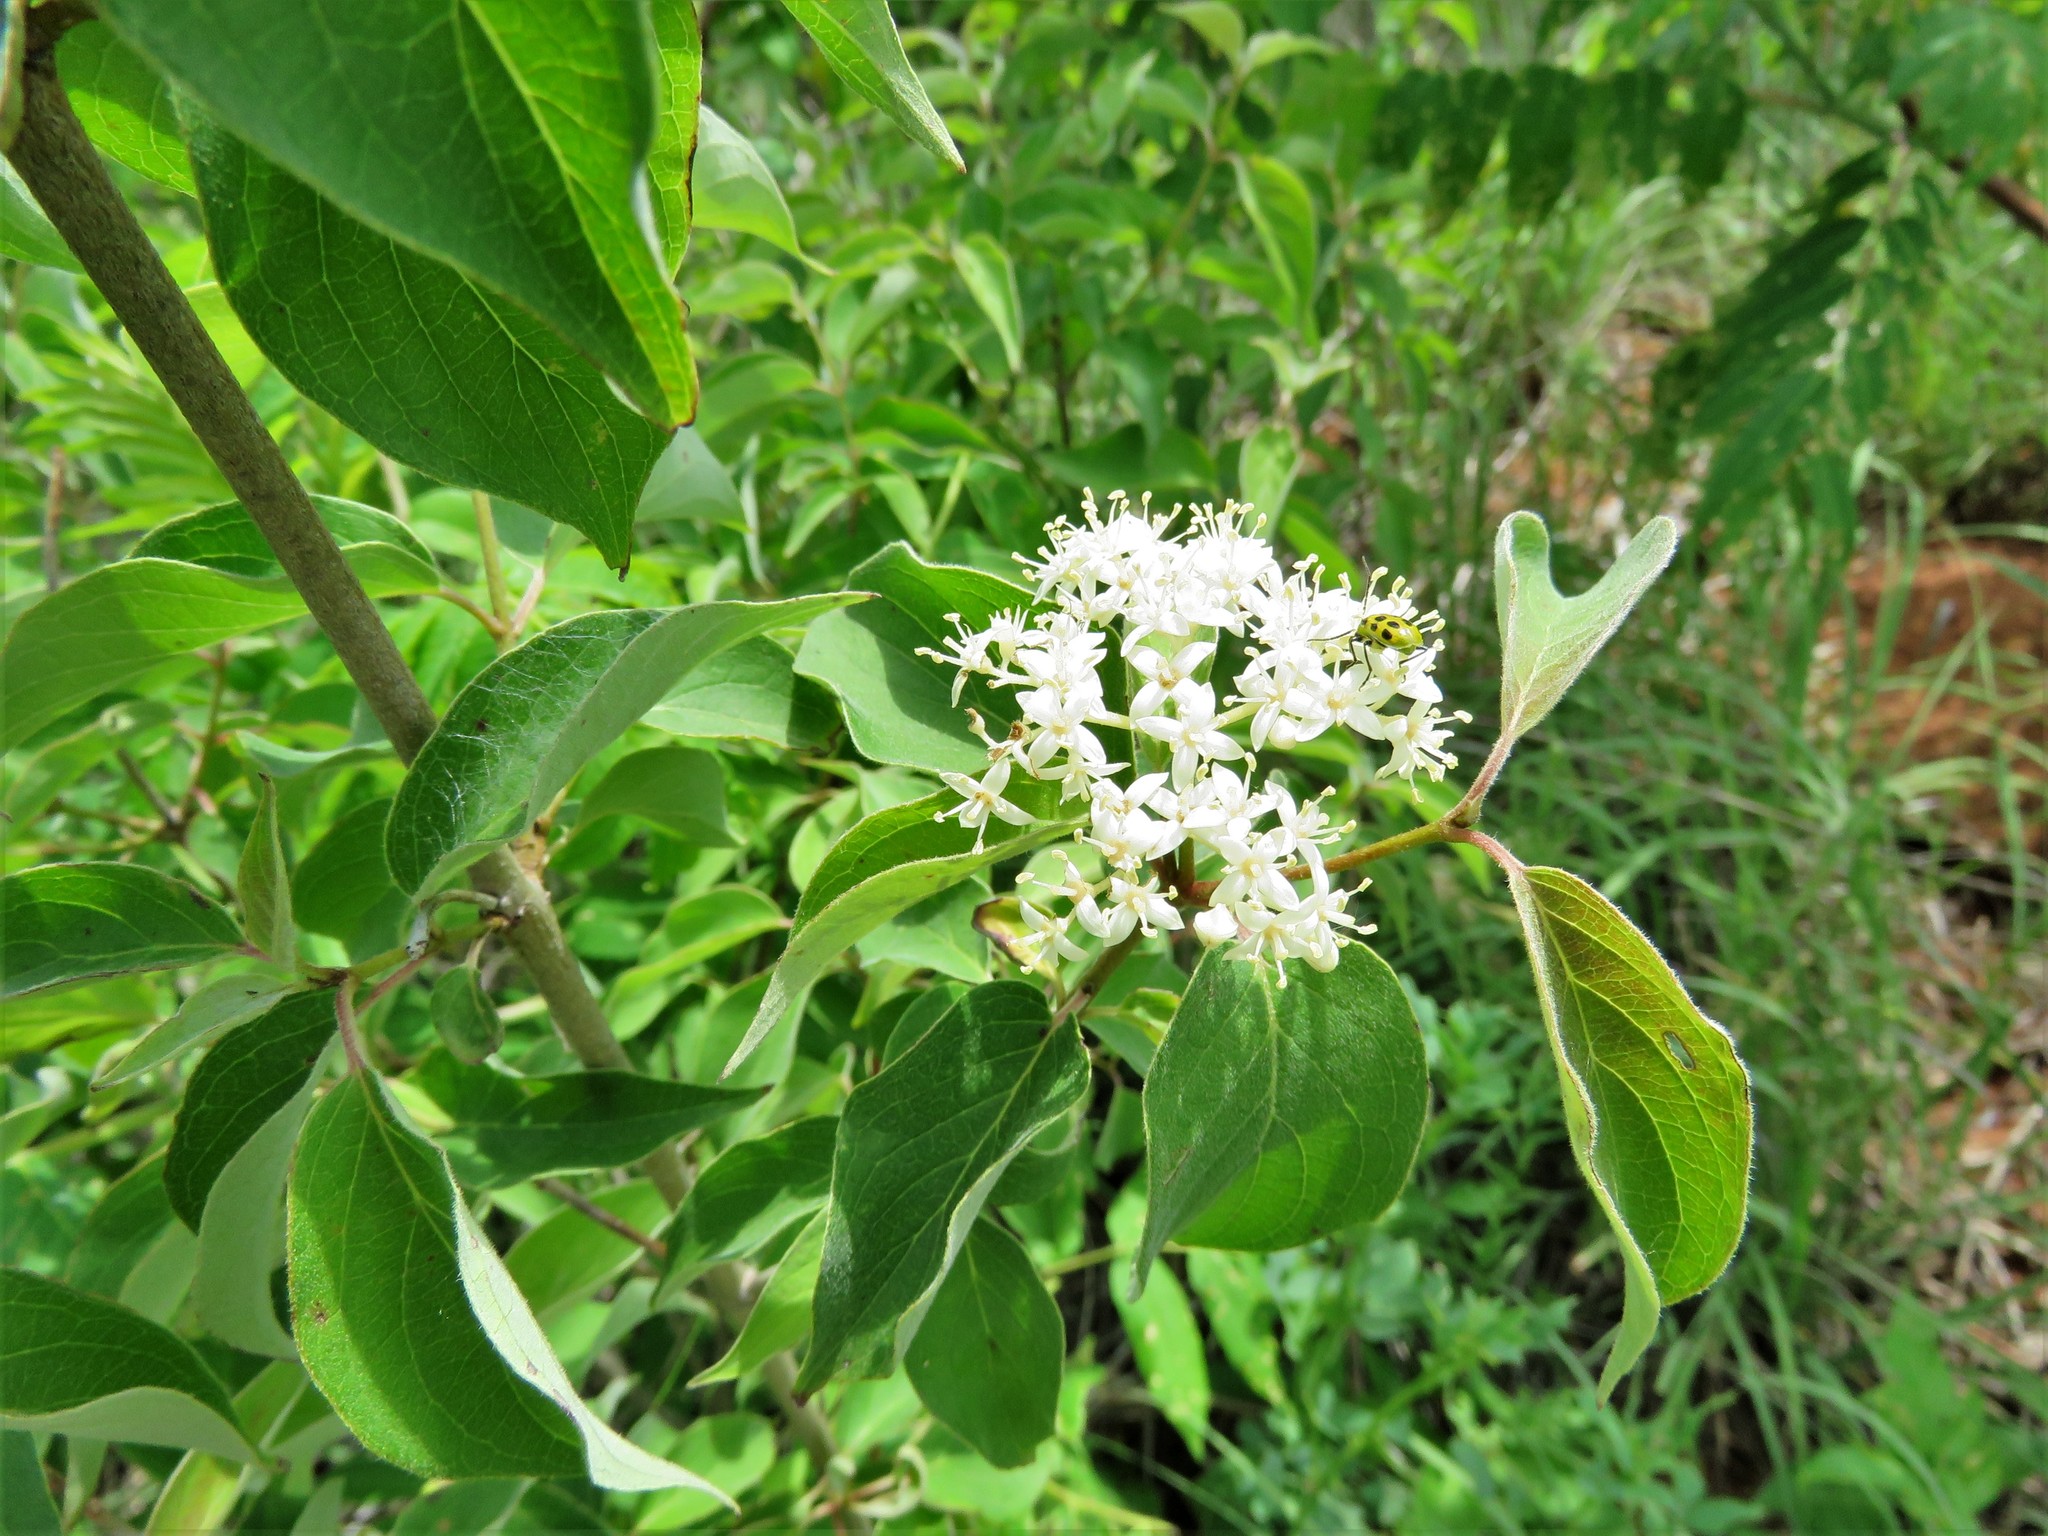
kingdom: Plantae
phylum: Tracheophyta
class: Magnoliopsida
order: Cornales
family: Cornaceae
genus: Cornus
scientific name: Cornus drummondii
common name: Rough-leaf dogwood
